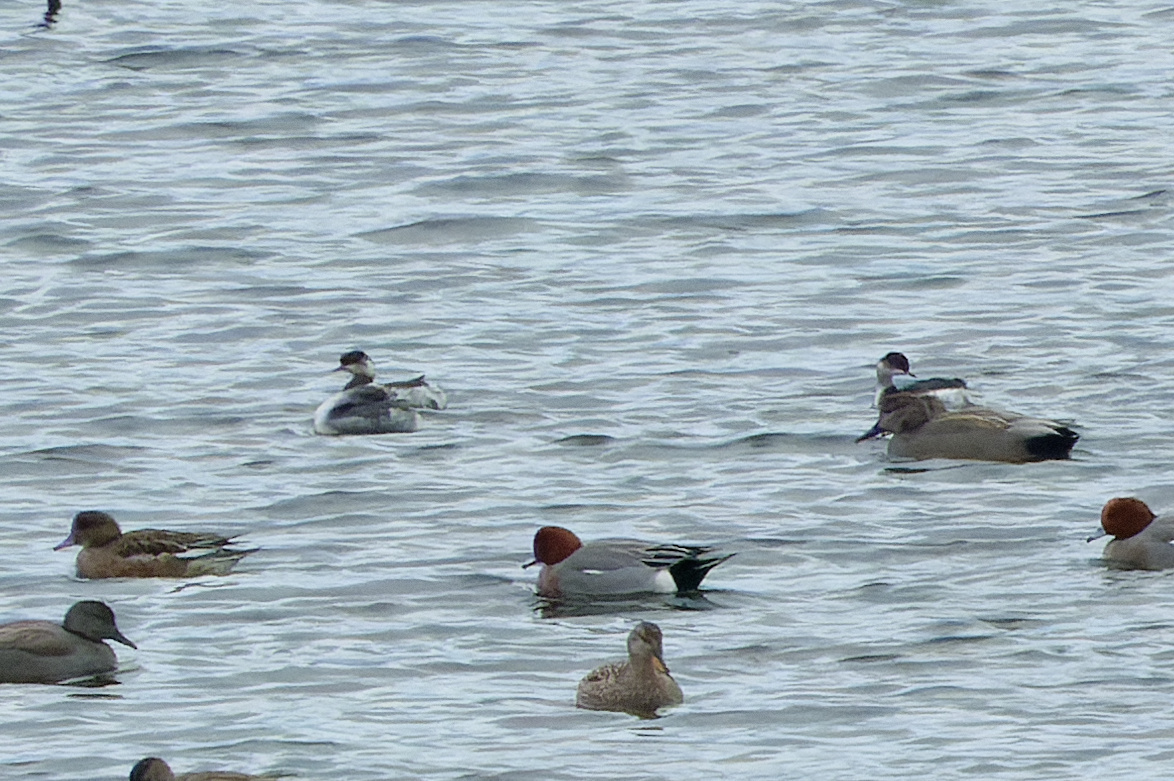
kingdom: Animalia
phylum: Chordata
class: Aves
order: Podicipediformes
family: Podicipedidae
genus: Podiceps
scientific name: Podiceps nigricollis
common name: Black-necked grebe
